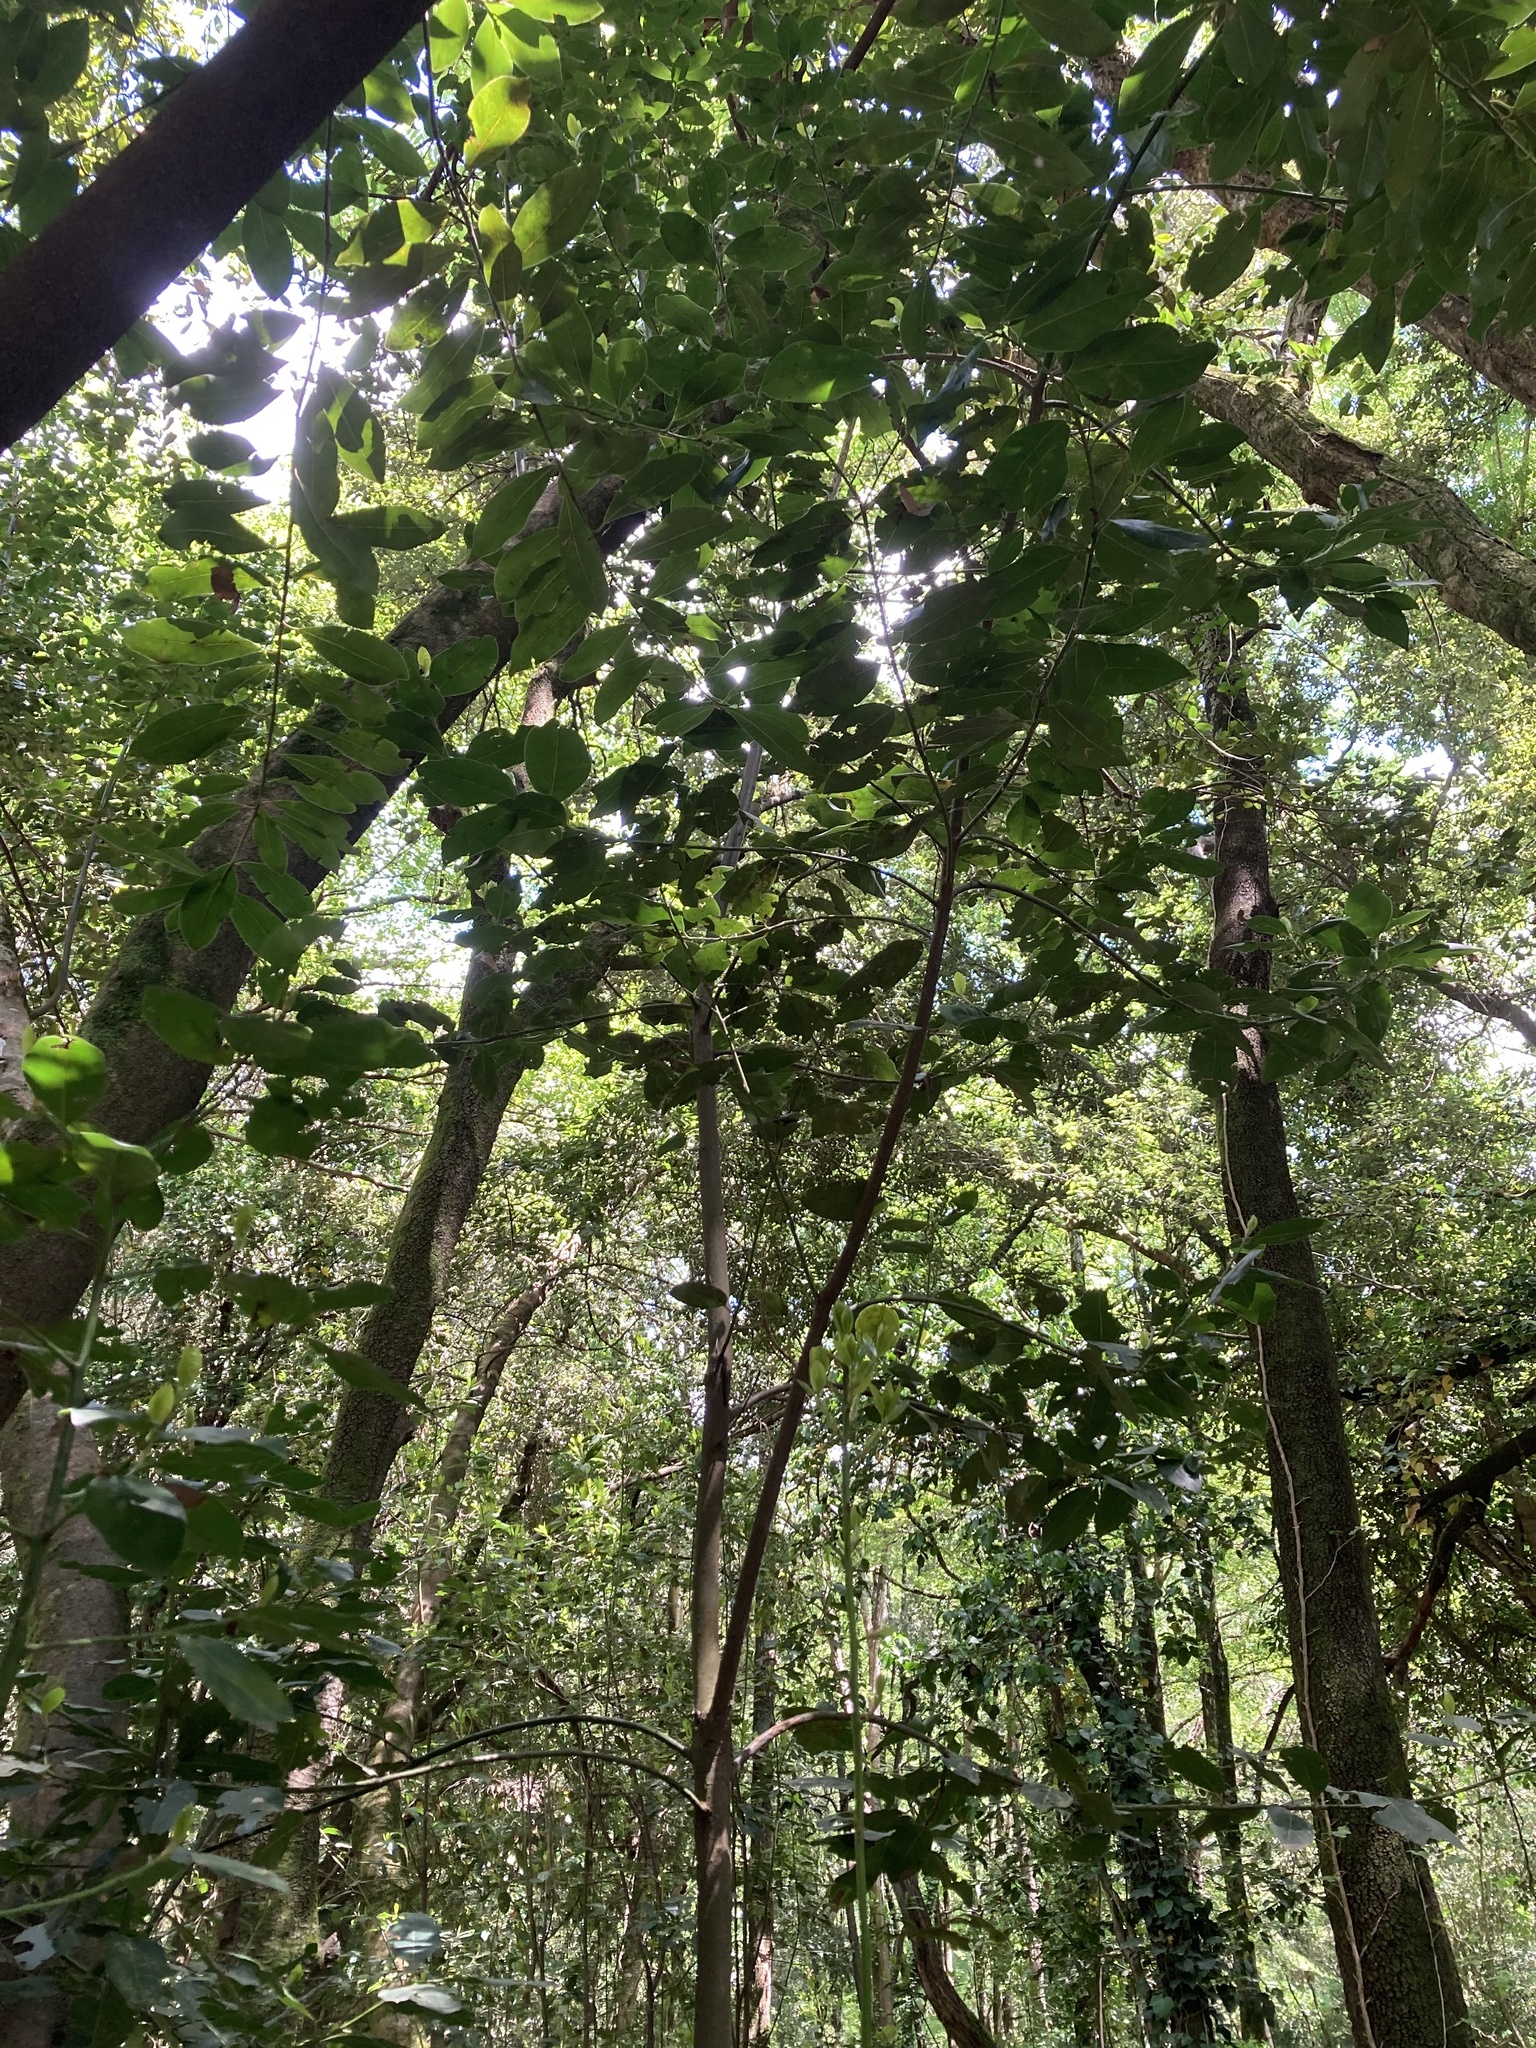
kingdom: Plantae
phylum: Tracheophyta
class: Magnoliopsida
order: Laurales
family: Lauraceae
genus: Laurus
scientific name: Laurus nobilis
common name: Bay
